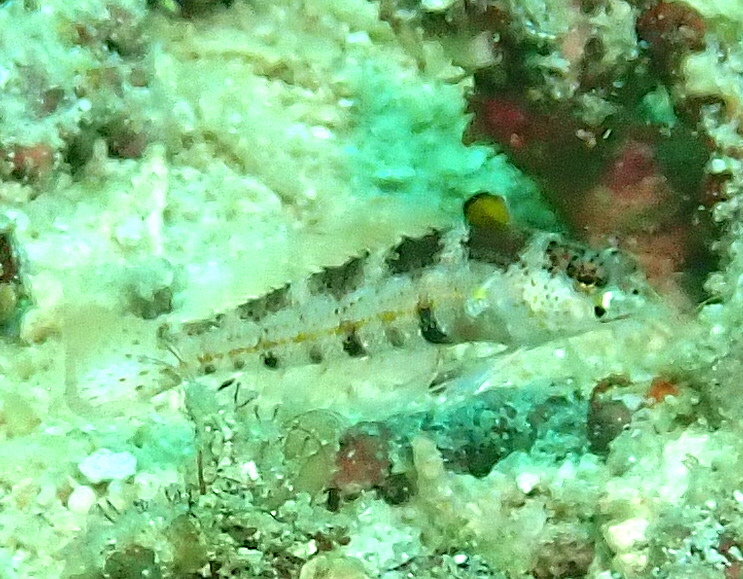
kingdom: Animalia
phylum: Chordata
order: Perciformes
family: Pinguipedidae
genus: Parapercis
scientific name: Parapercis snyderi
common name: U-mark sandperch
